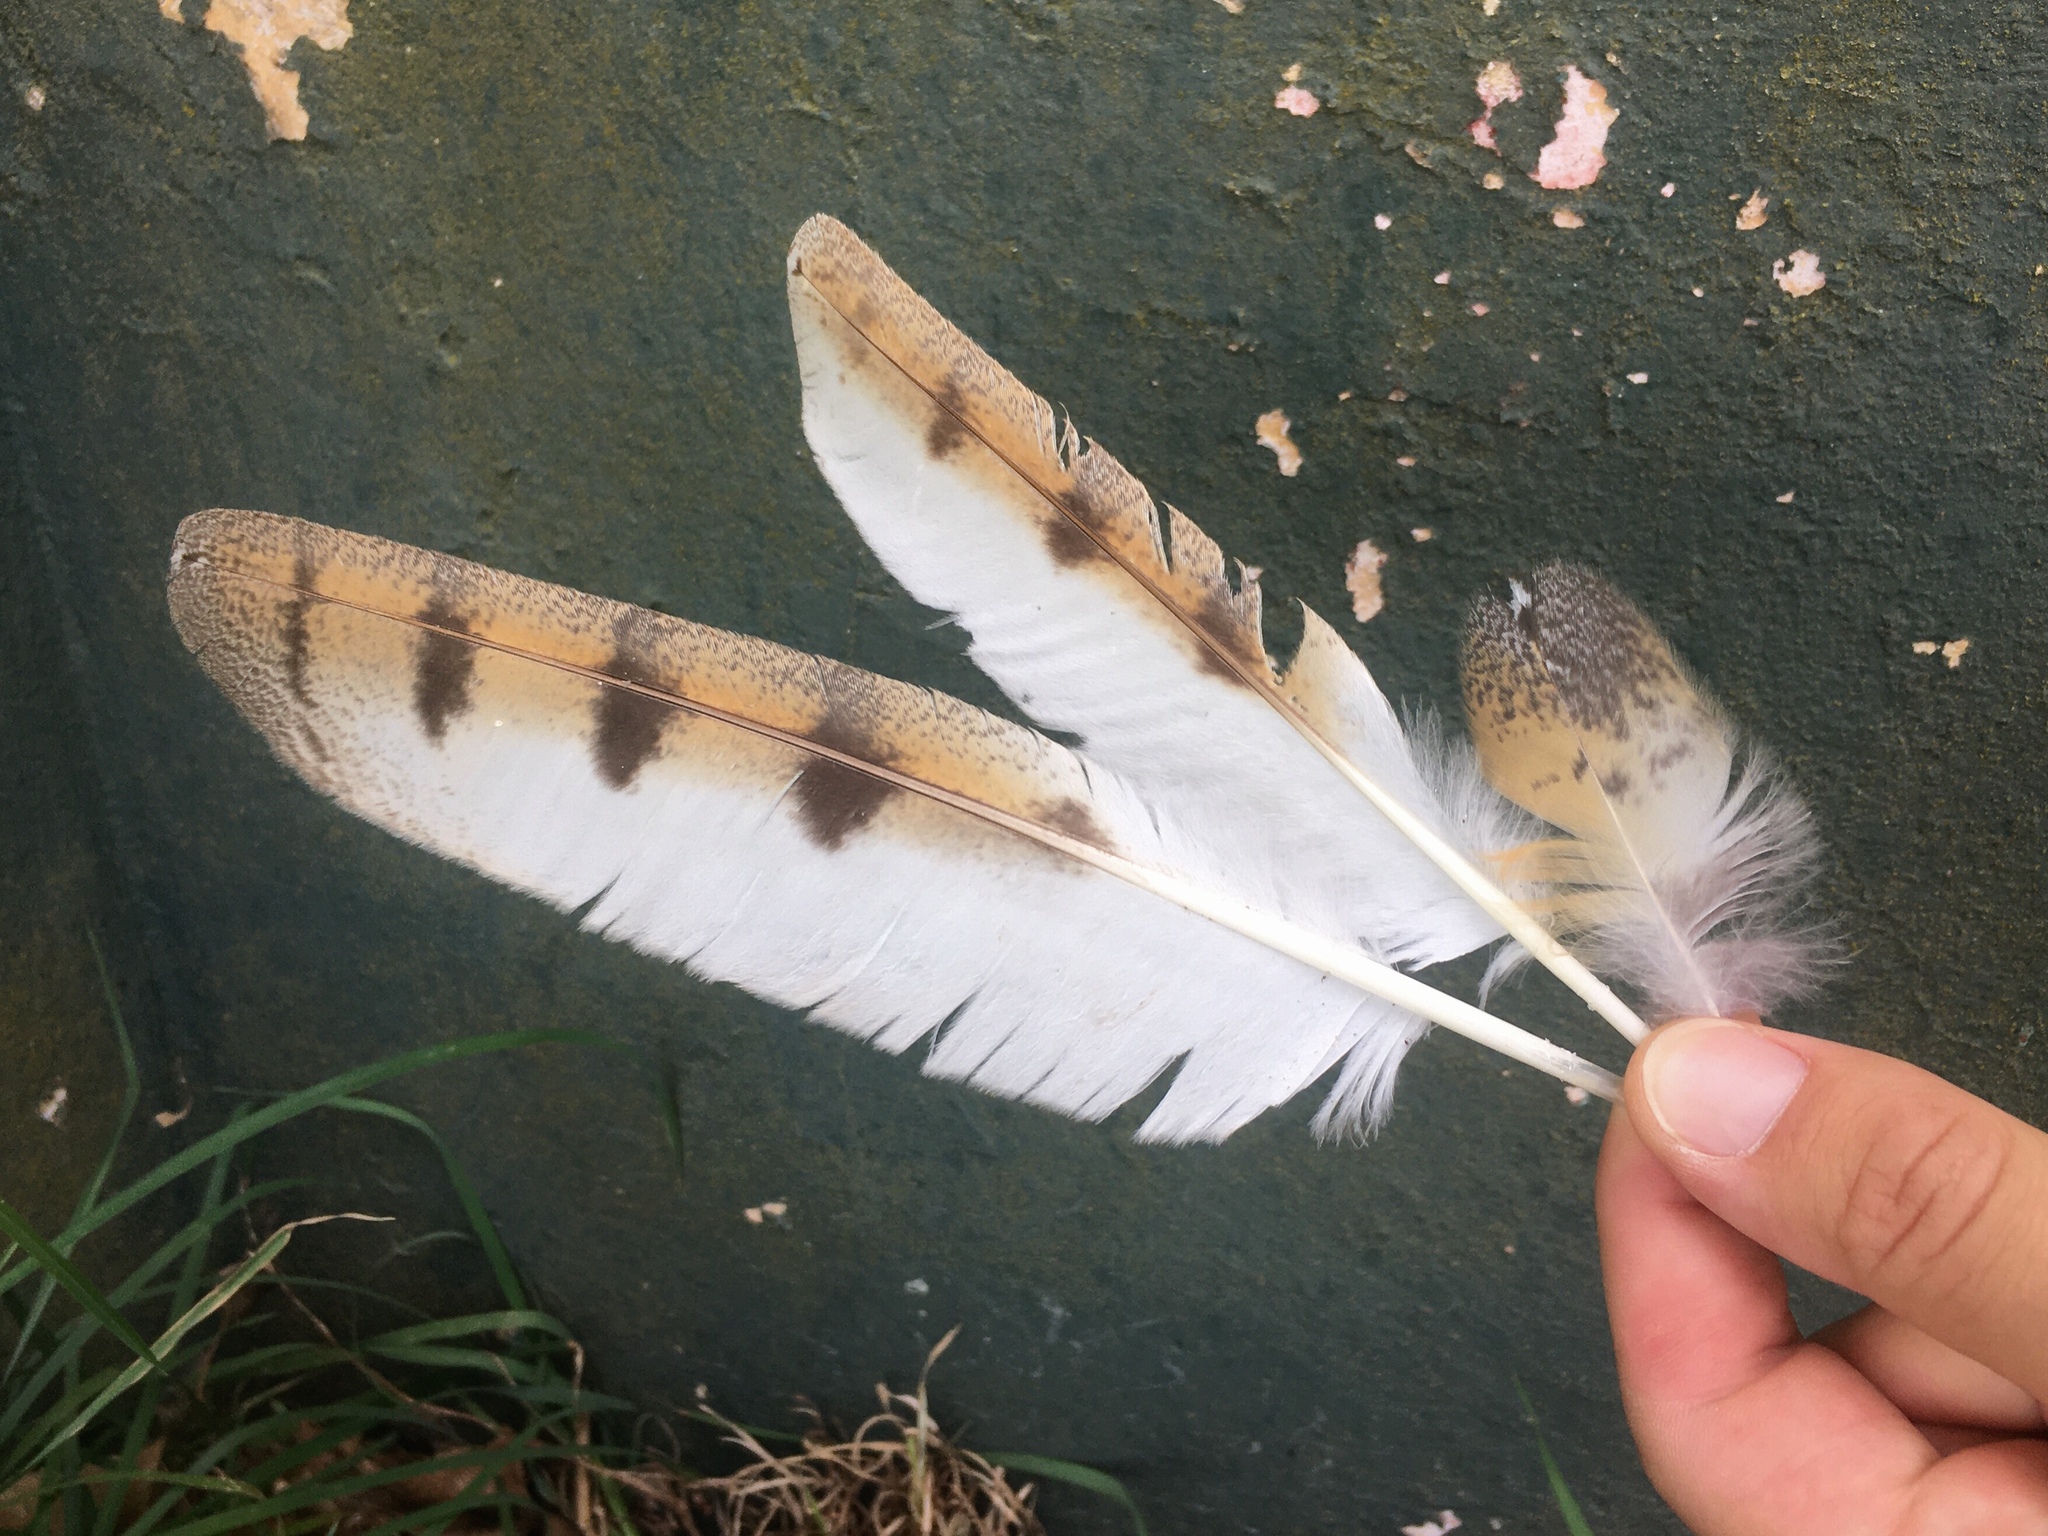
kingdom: Animalia
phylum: Chordata
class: Aves
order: Strigiformes
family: Tytonidae
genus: Tyto
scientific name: Tyto furcata
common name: American barn owl
